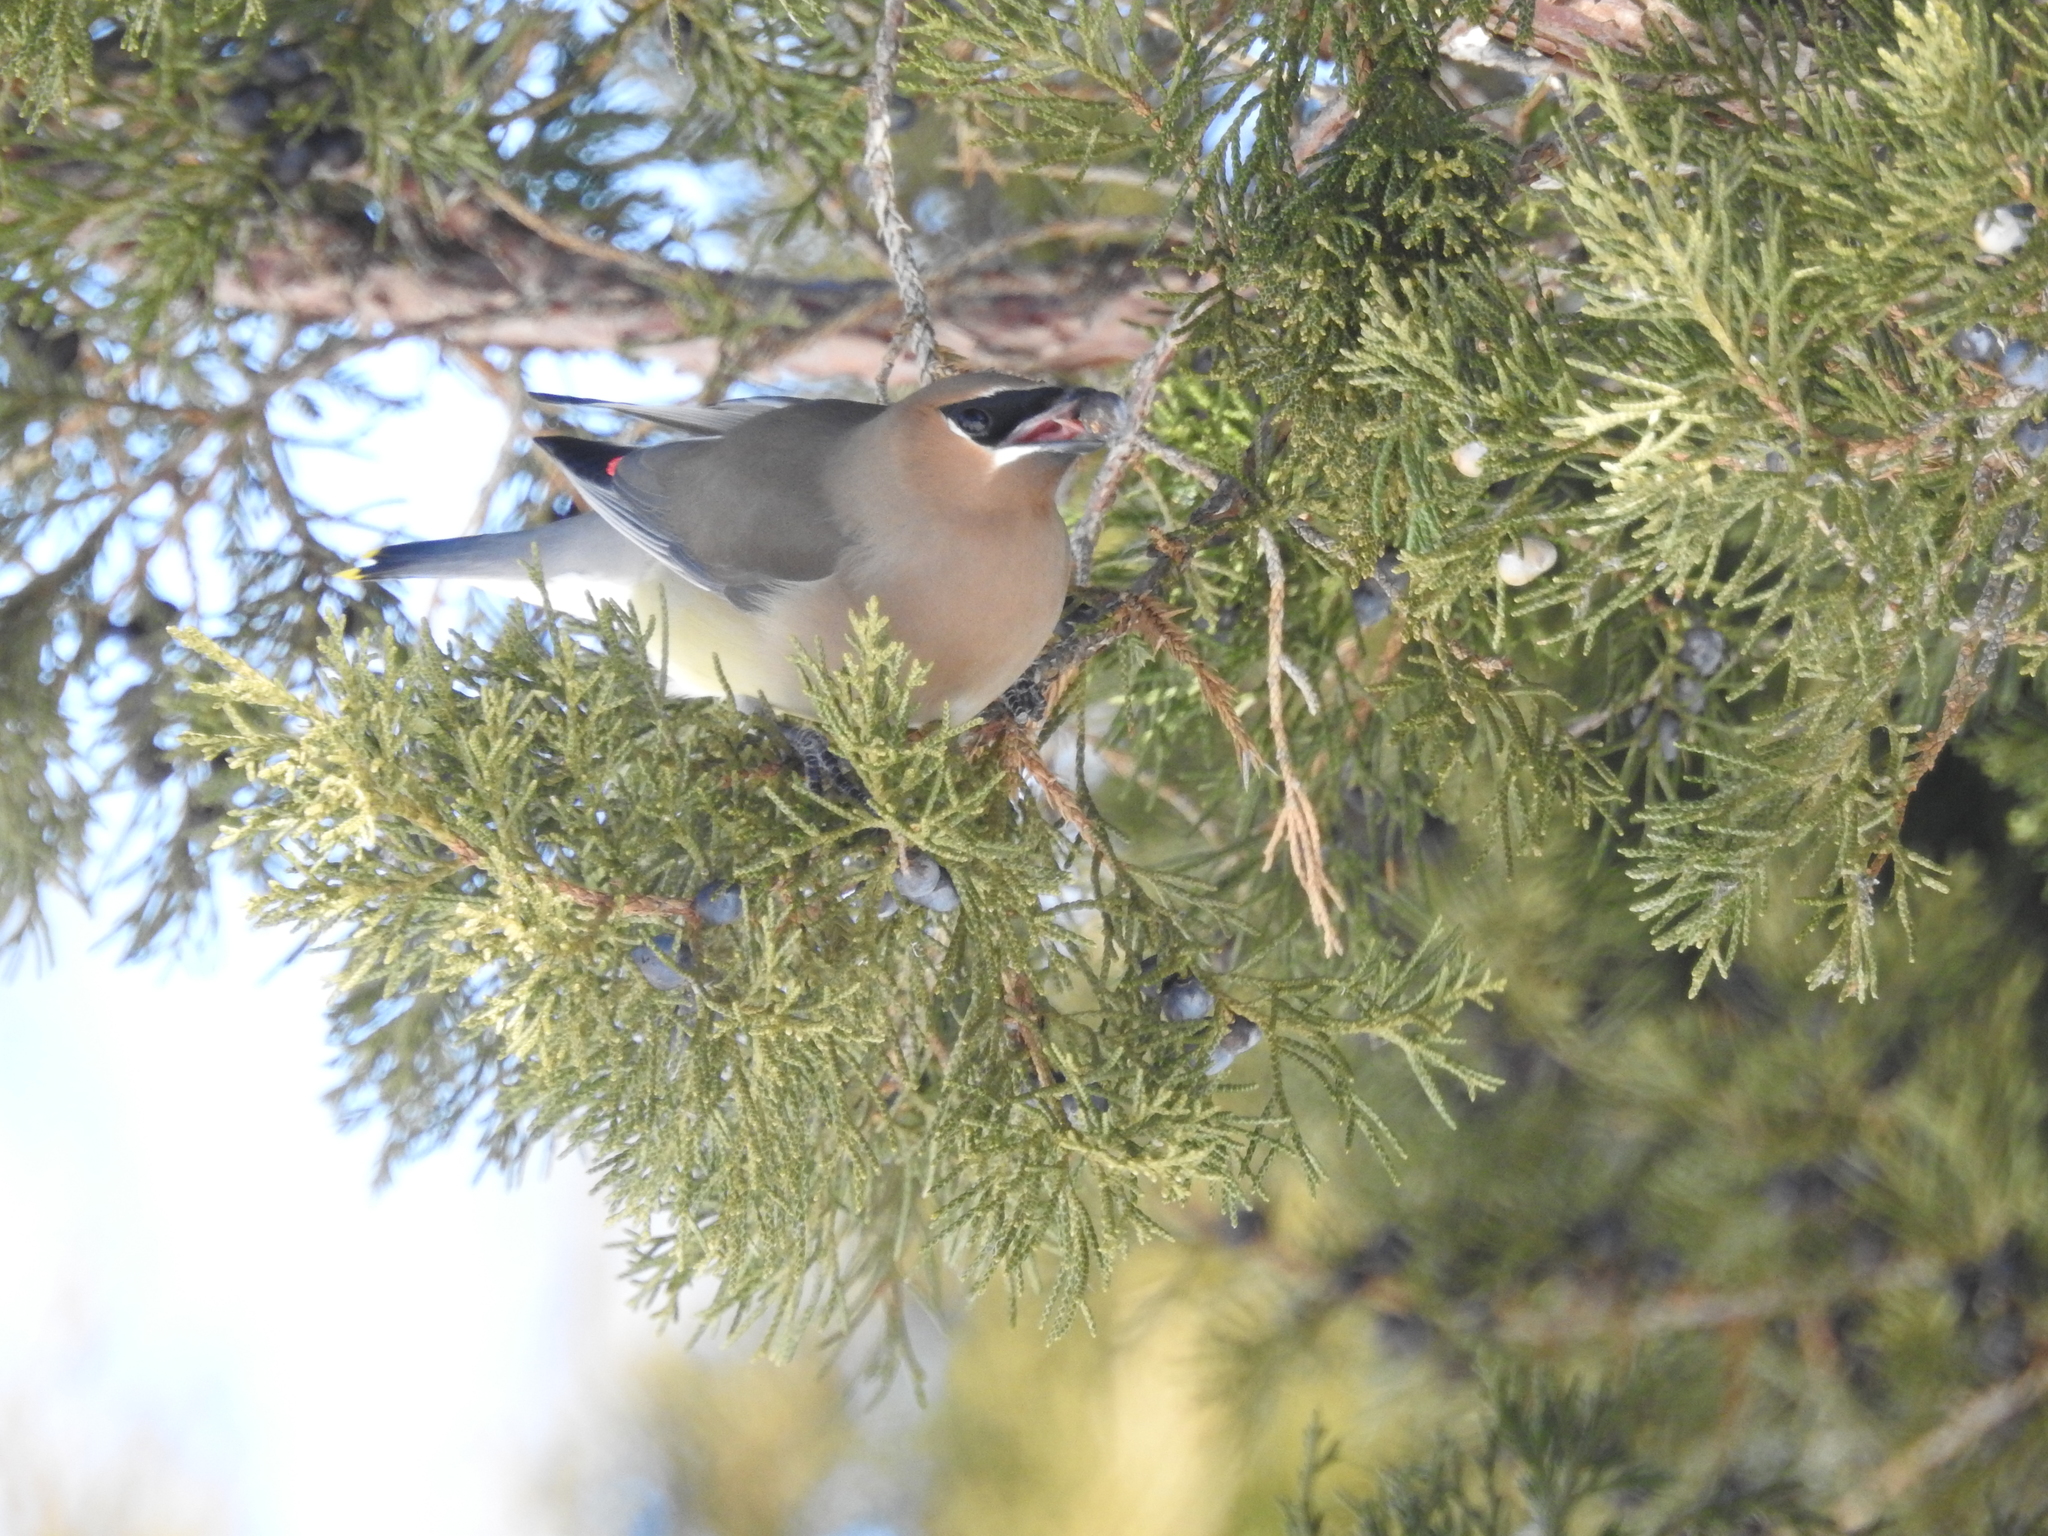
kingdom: Animalia
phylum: Chordata
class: Aves
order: Passeriformes
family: Bombycillidae
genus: Bombycilla
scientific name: Bombycilla cedrorum
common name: Cedar waxwing
